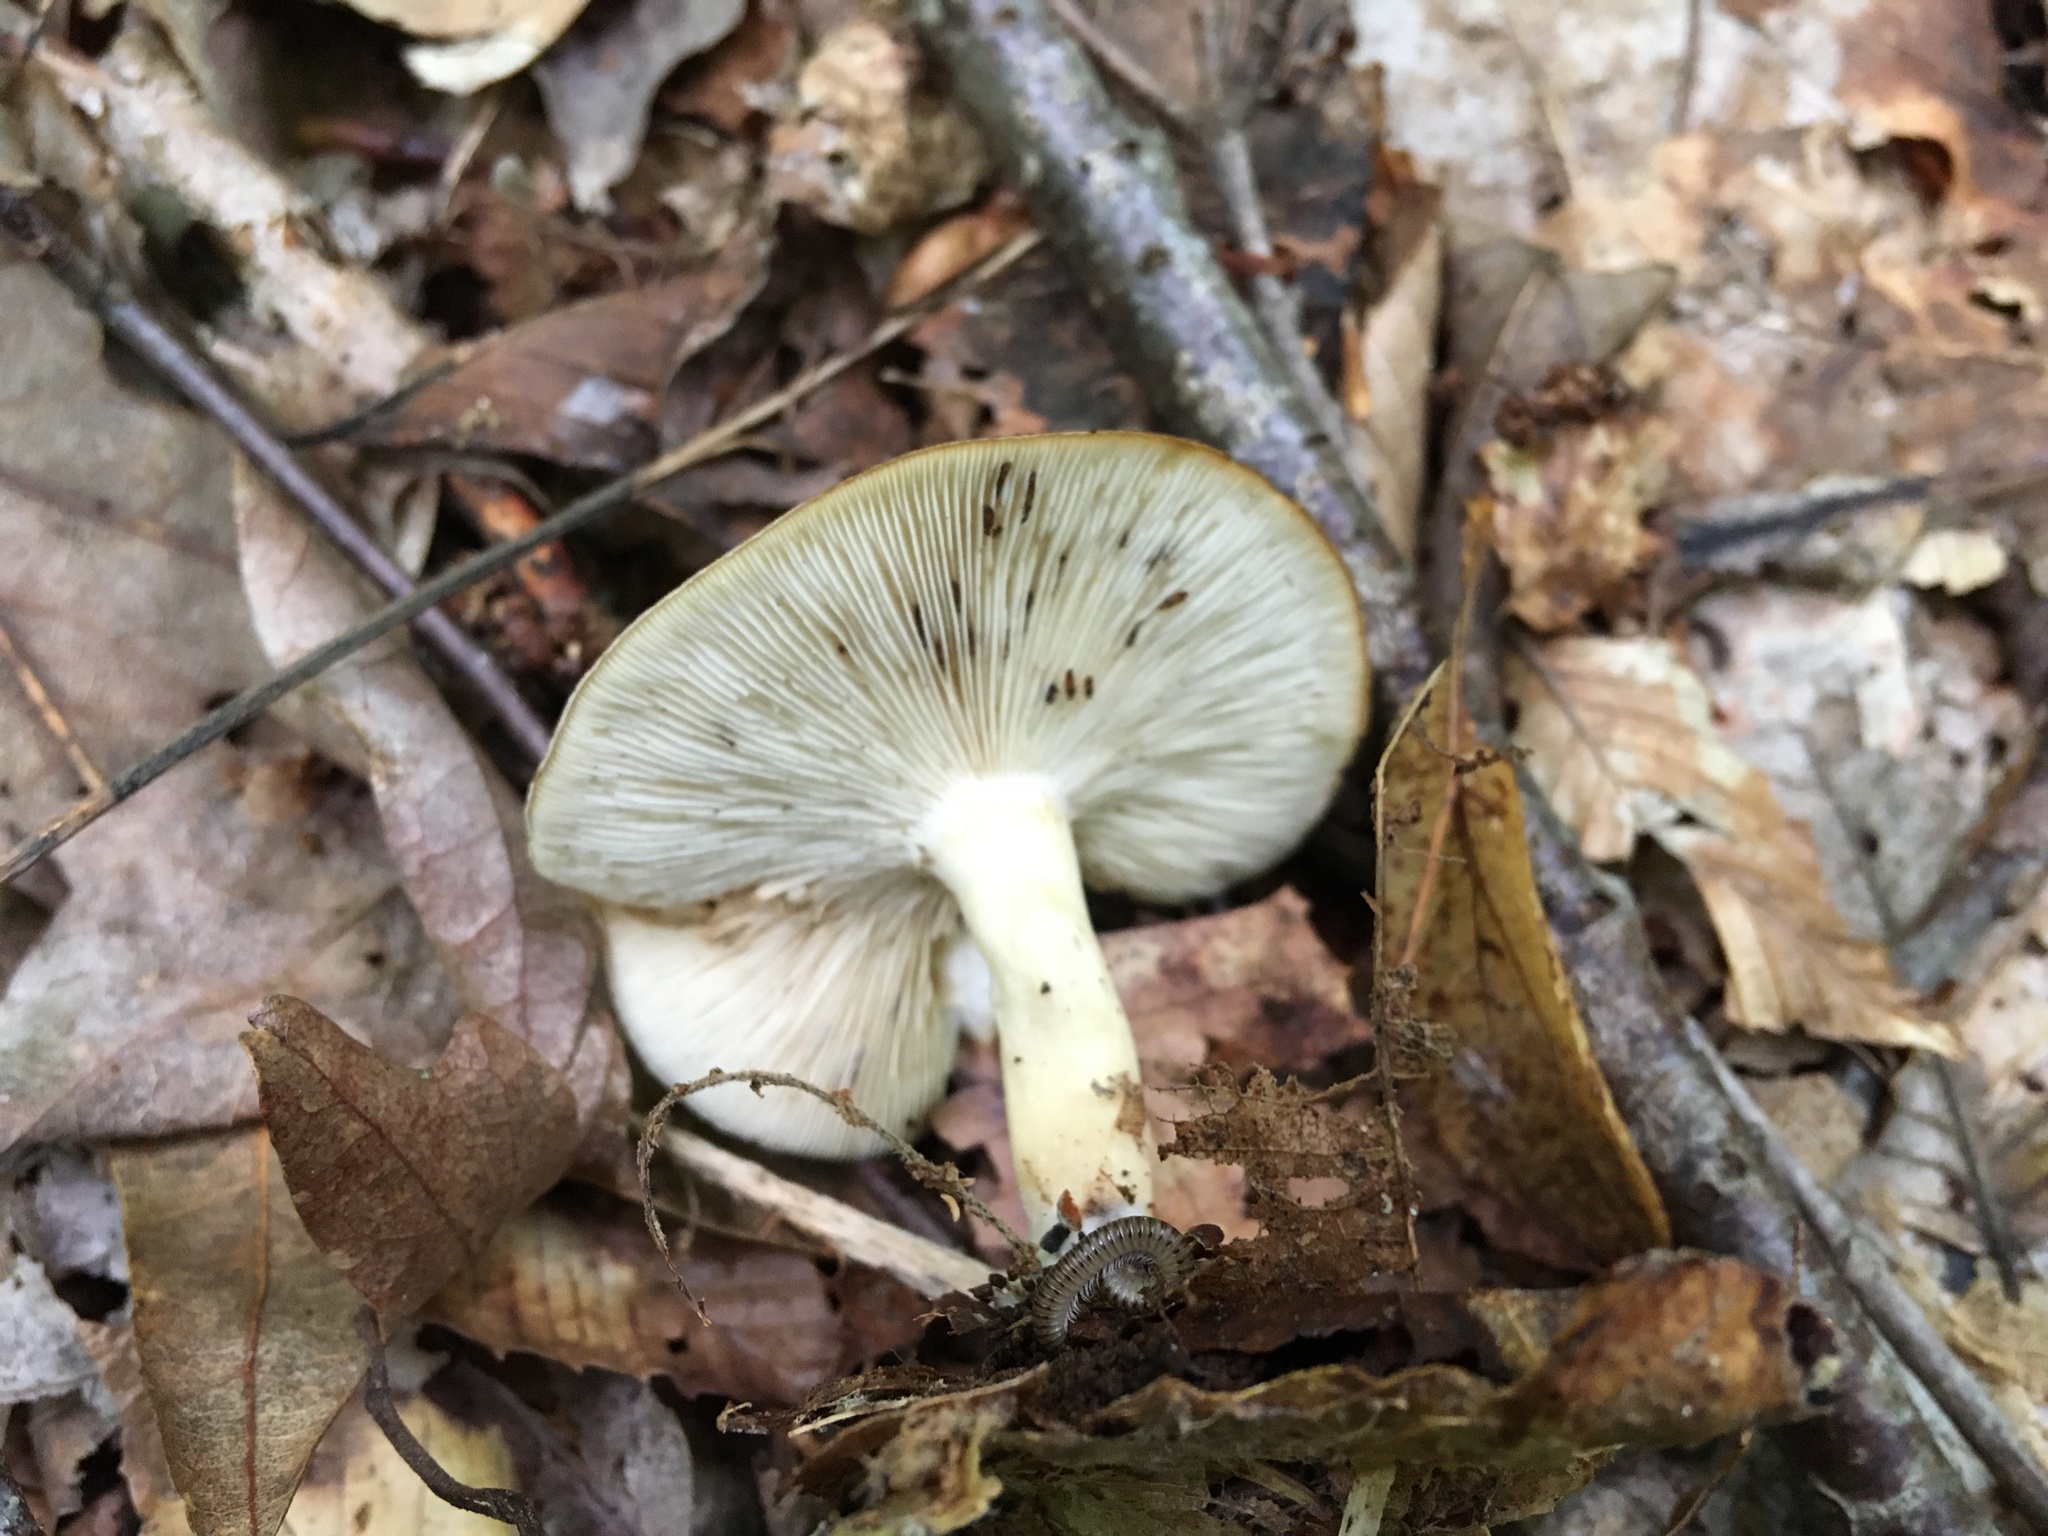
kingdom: Fungi
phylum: Basidiomycota
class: Agaricomycetes
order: Agaricales
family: Tricholomataceae
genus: Collybia
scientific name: Collybia
